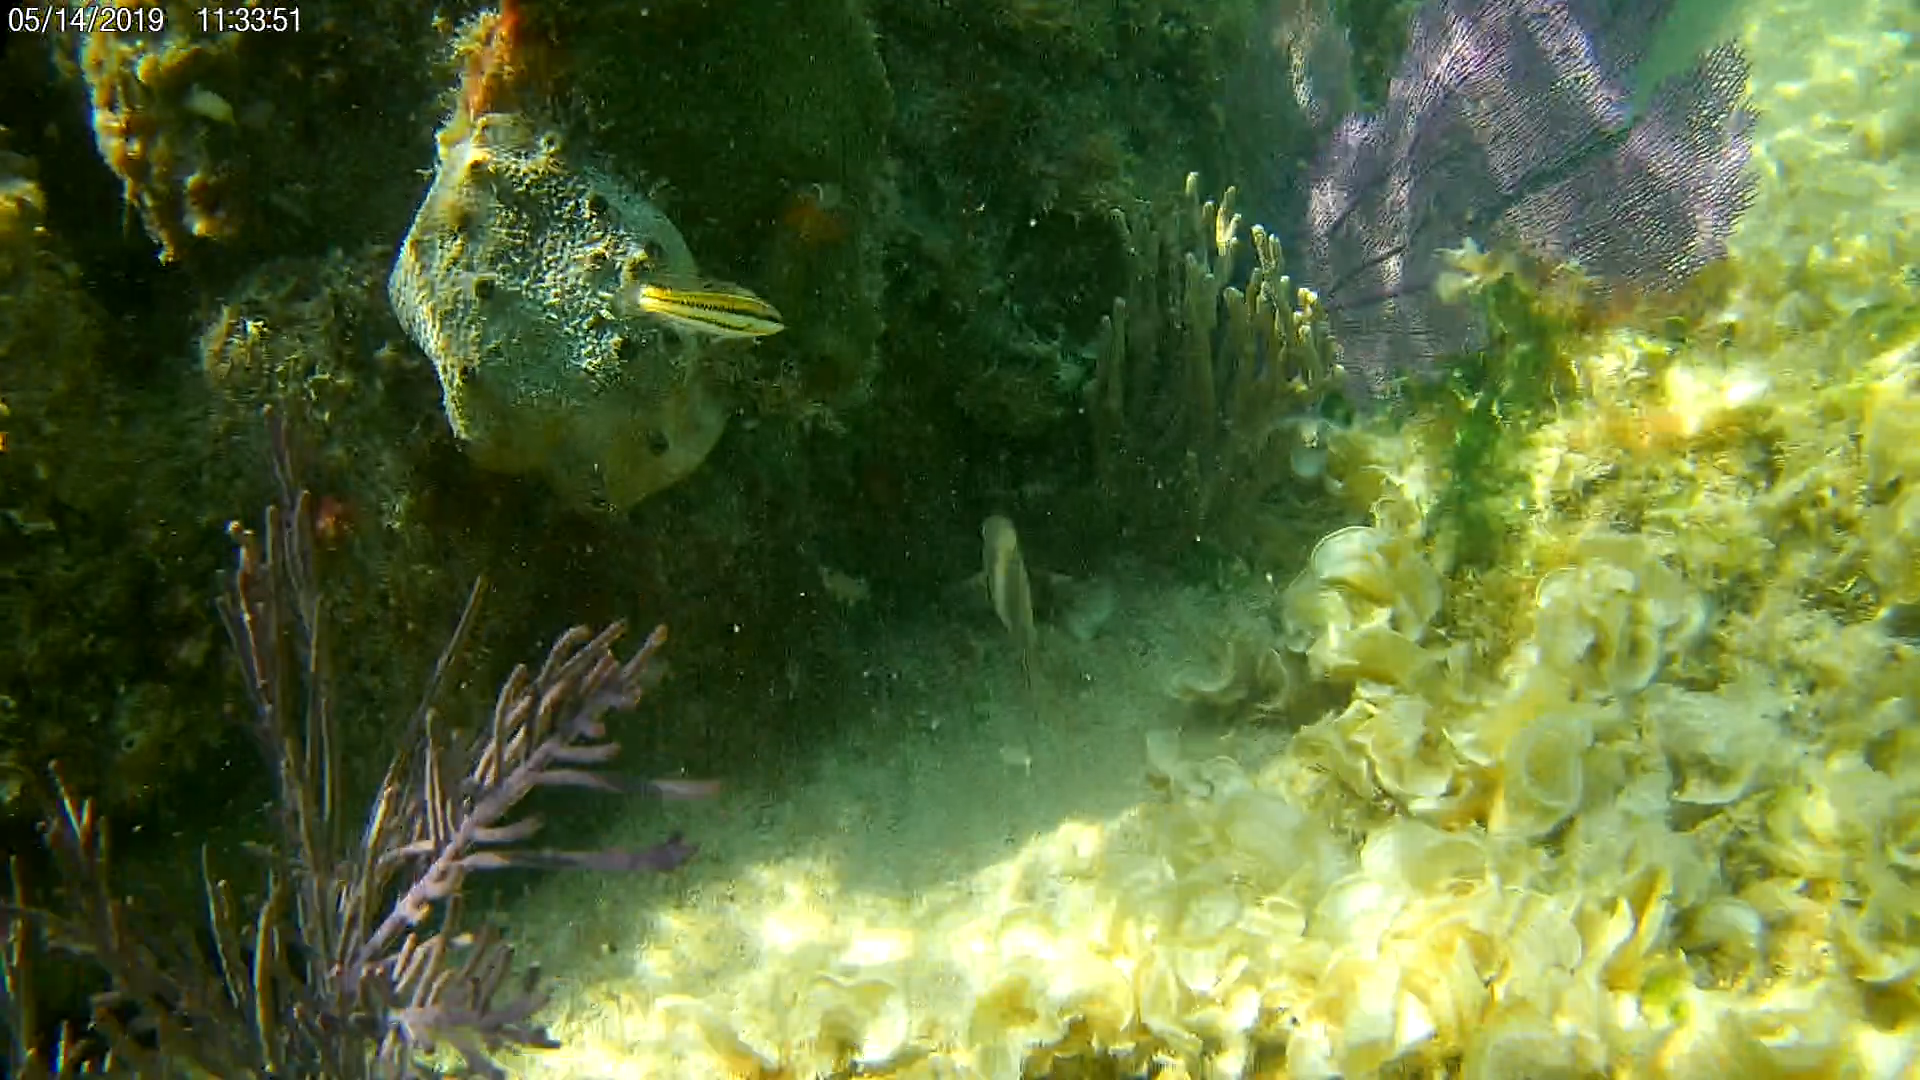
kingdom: Animalia
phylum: Chordata
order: Perciformes
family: Labridae
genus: Halichoeres
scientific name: Halichoeres bivittatus
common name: Slippery dick
